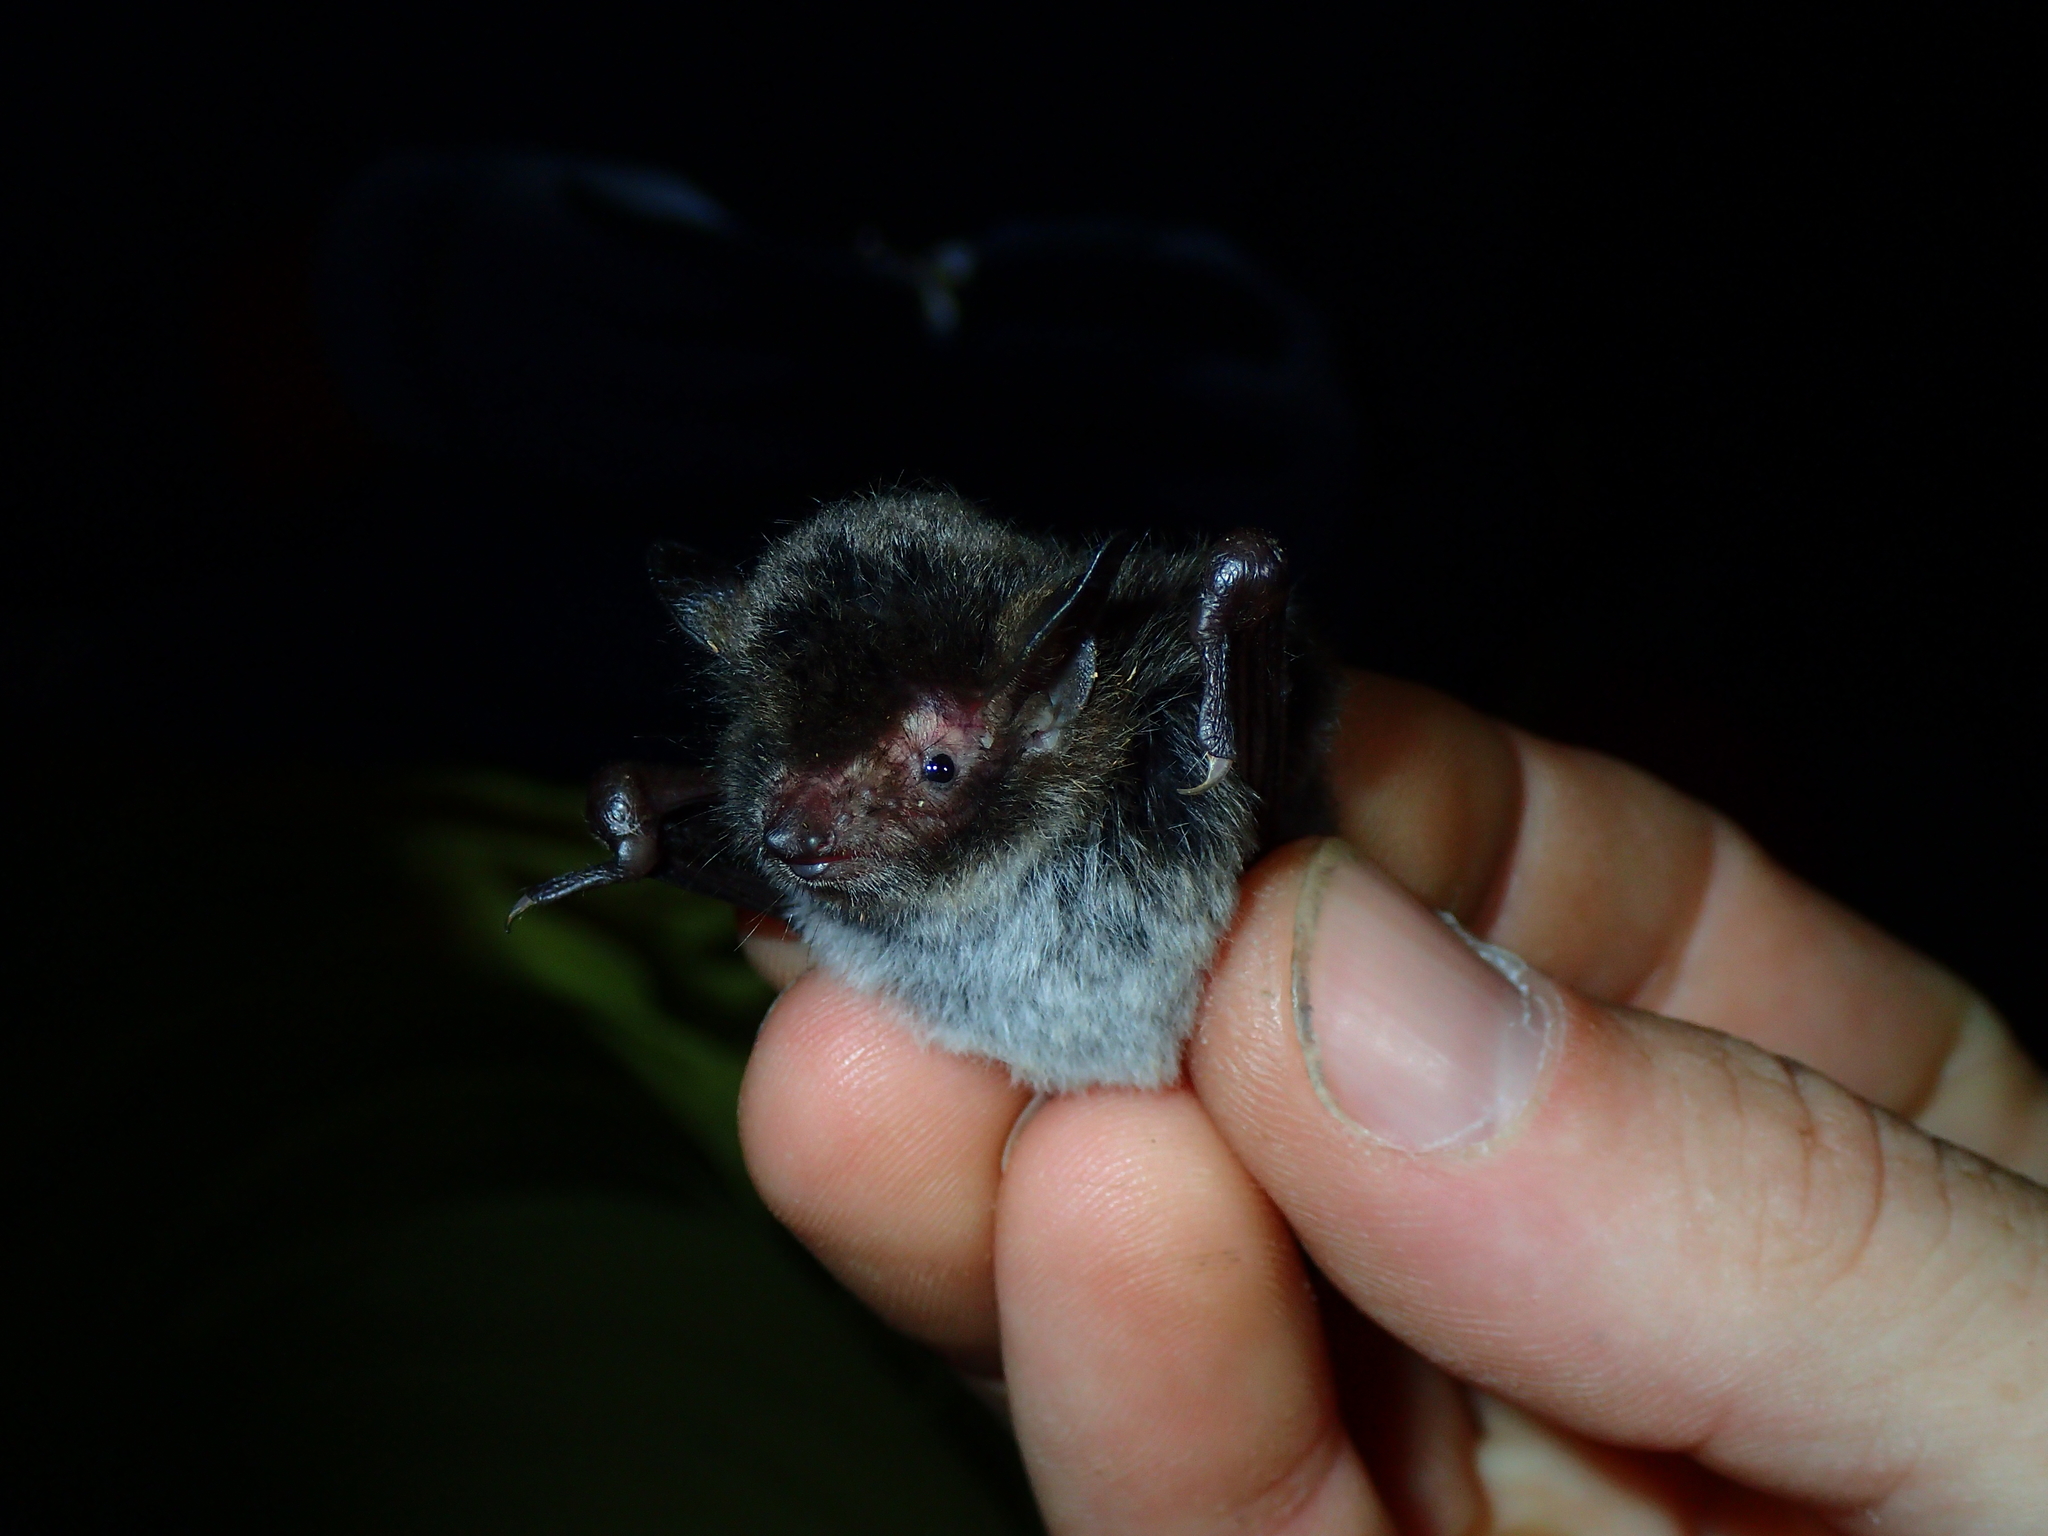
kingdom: Animalia
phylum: Chordata
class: Mammalia
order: Chiroptera
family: Vespertilionidae
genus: Myotis
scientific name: Myotis daubentonii
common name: Daubenton's myotis
